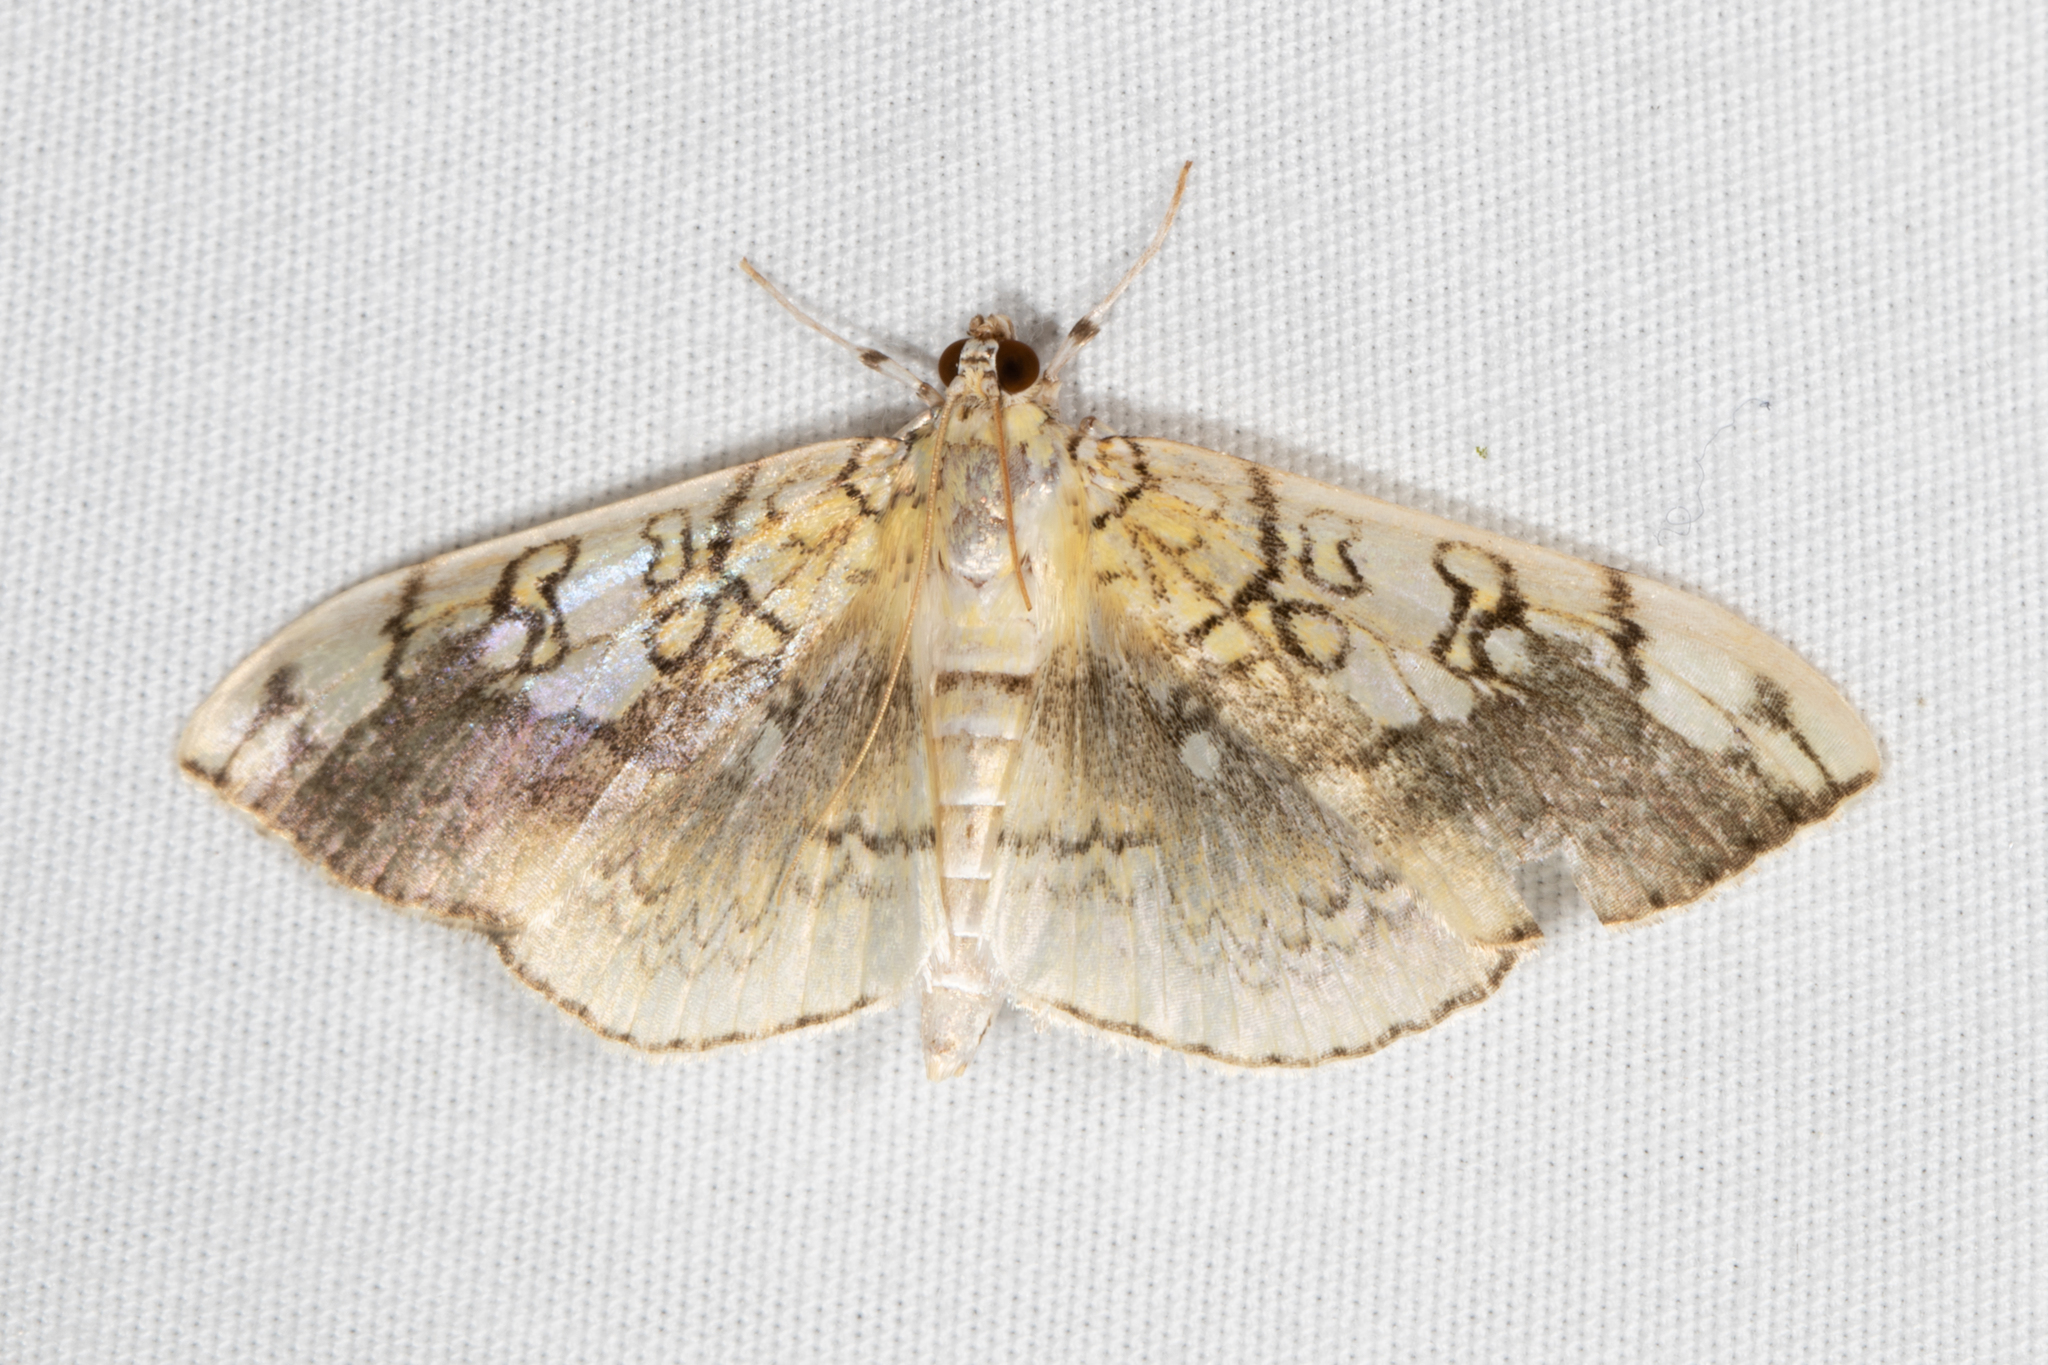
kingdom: Animalia
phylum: Arthropoda
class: Insecta
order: Lepidoptera
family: Crambidae
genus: Pantographa
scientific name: Pantographa limata
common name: Basswood leafroller moth
